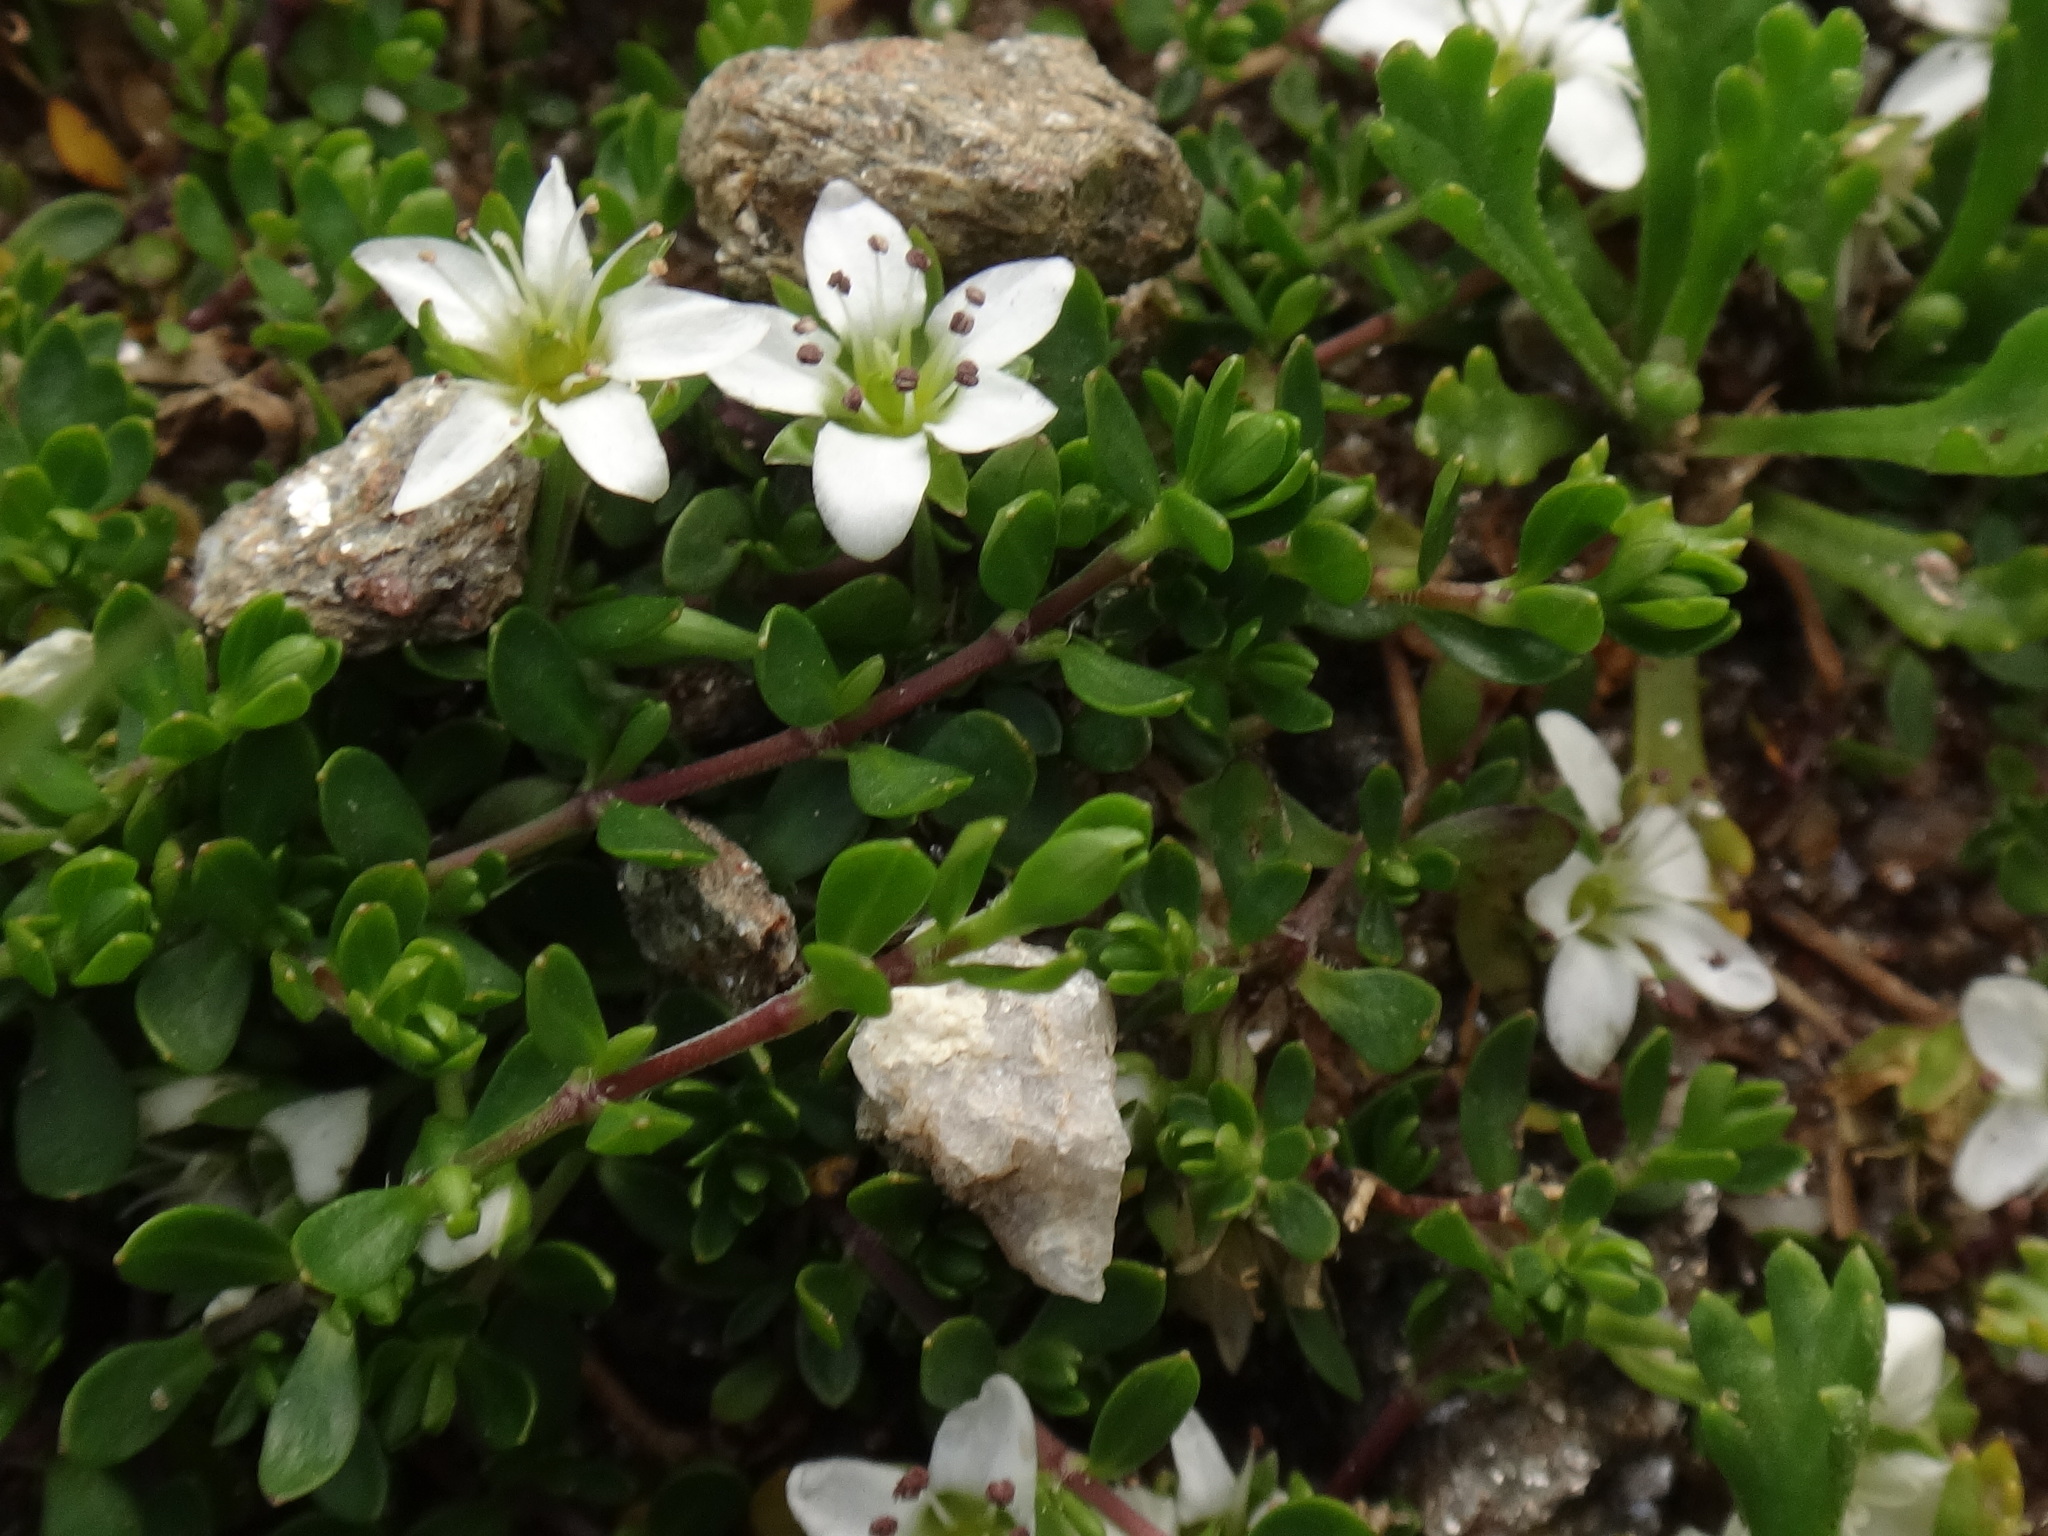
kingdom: Plantae
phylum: Tracheophyta
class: Magnoliopsida
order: Caryophyllales
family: Caryophyllaceae
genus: Arenaria
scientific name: Arenaria biflora
